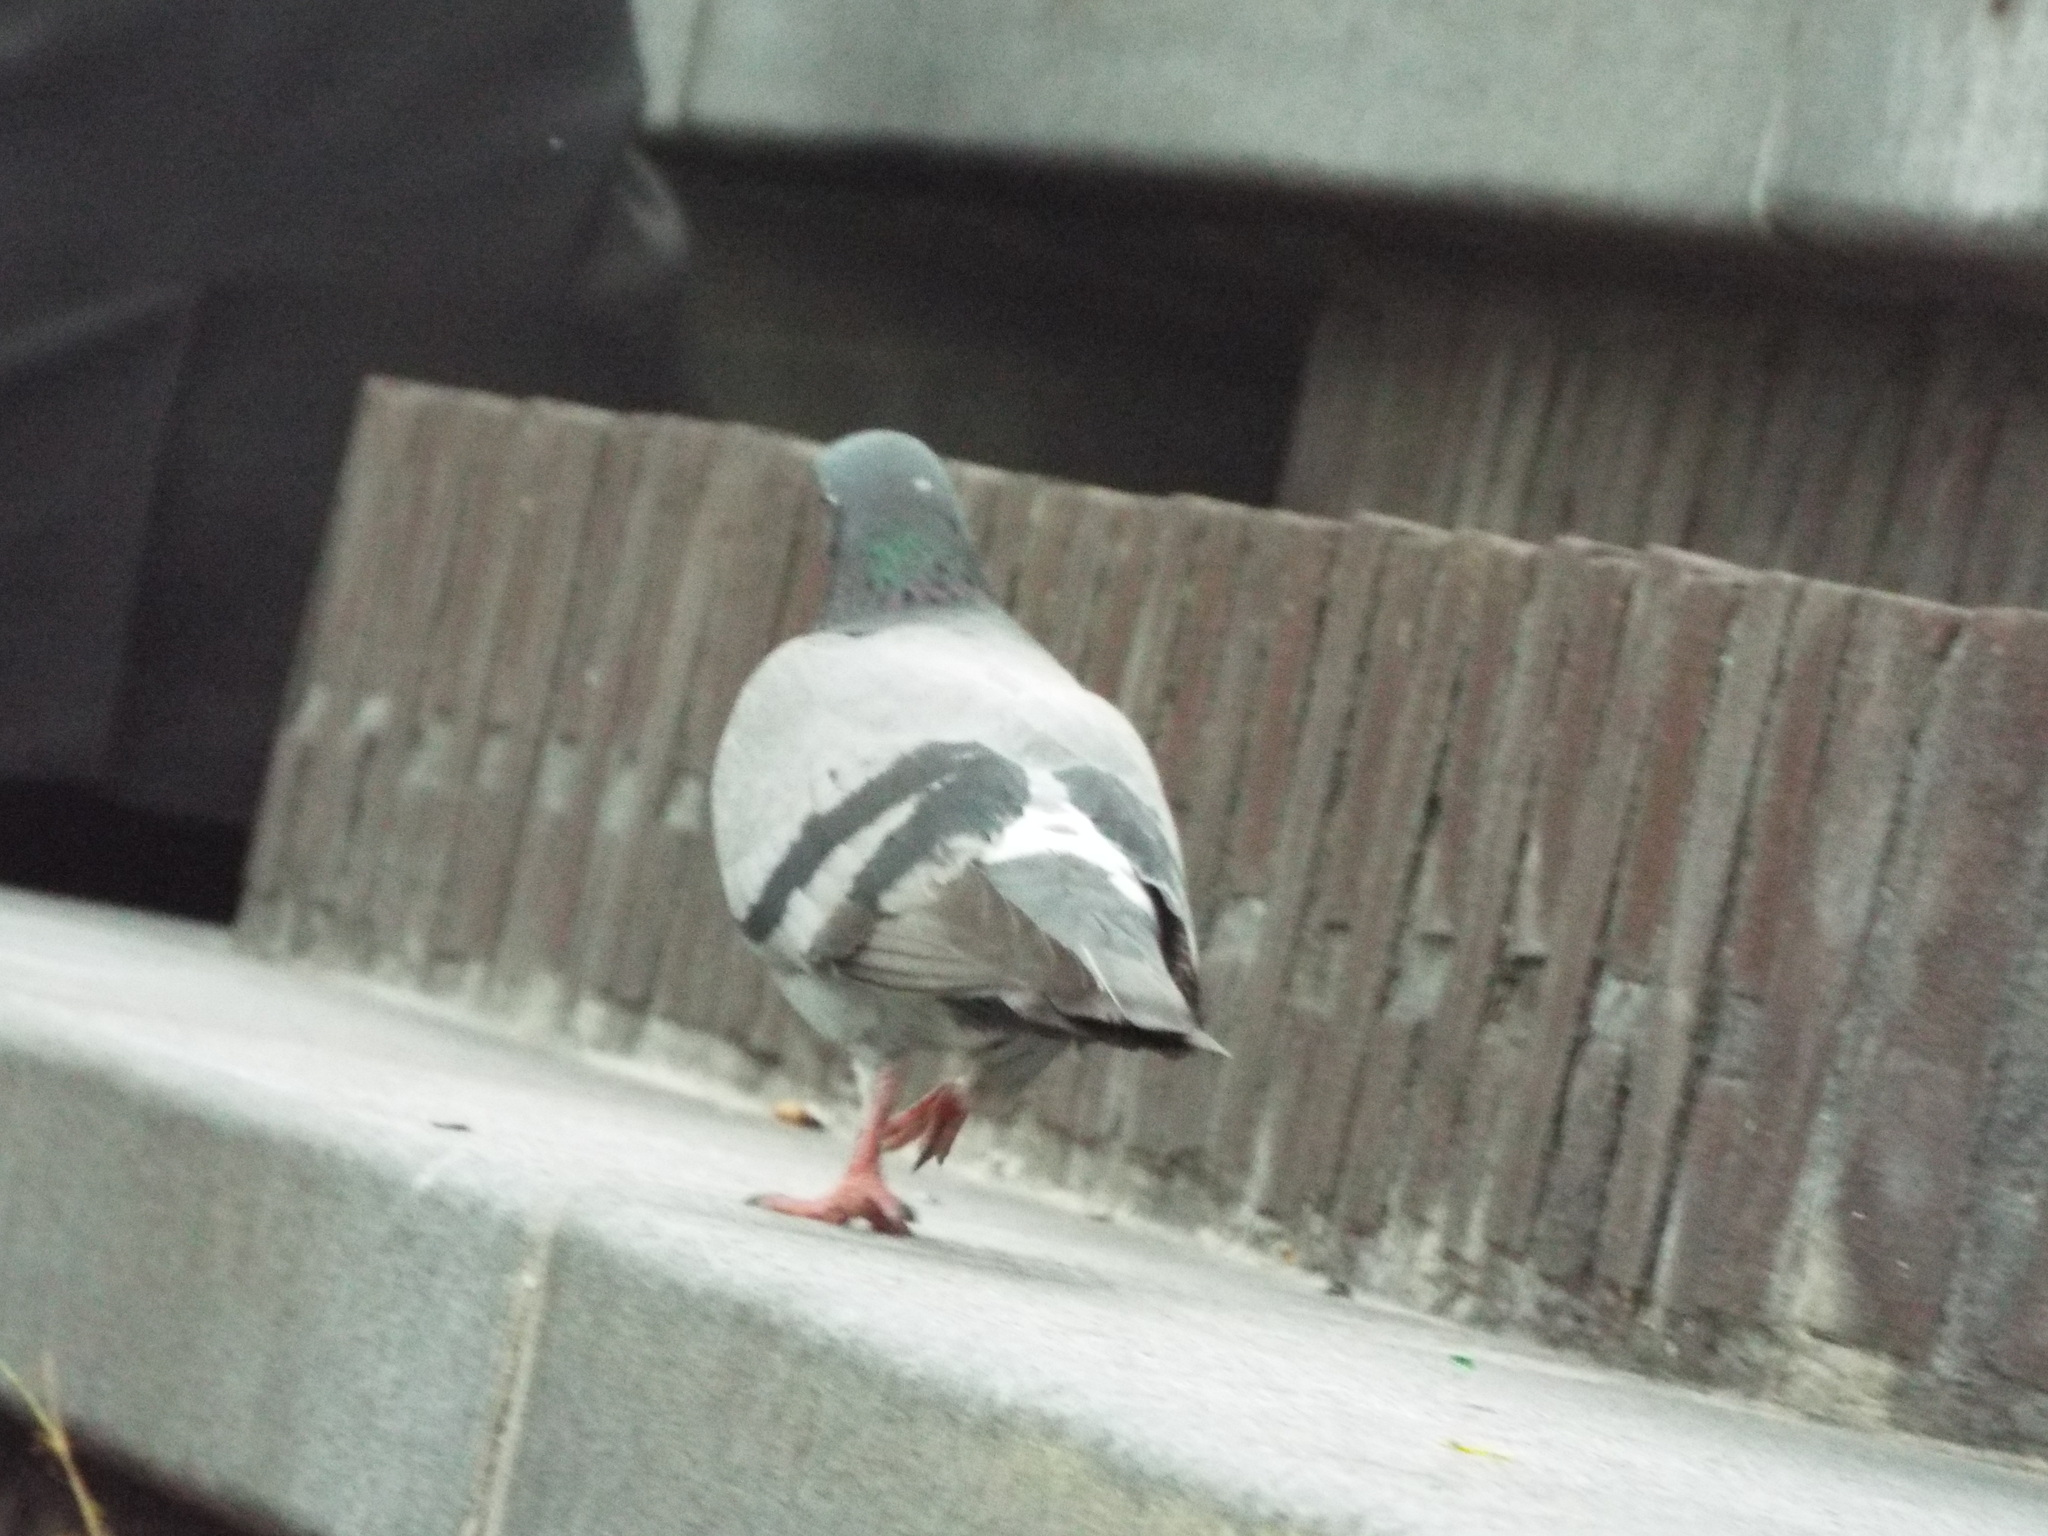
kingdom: Animalia
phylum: Chordata
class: Aves
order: Columbiformes
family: Columbidae
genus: Columba
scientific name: Columba livia
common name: Rock pigeon
